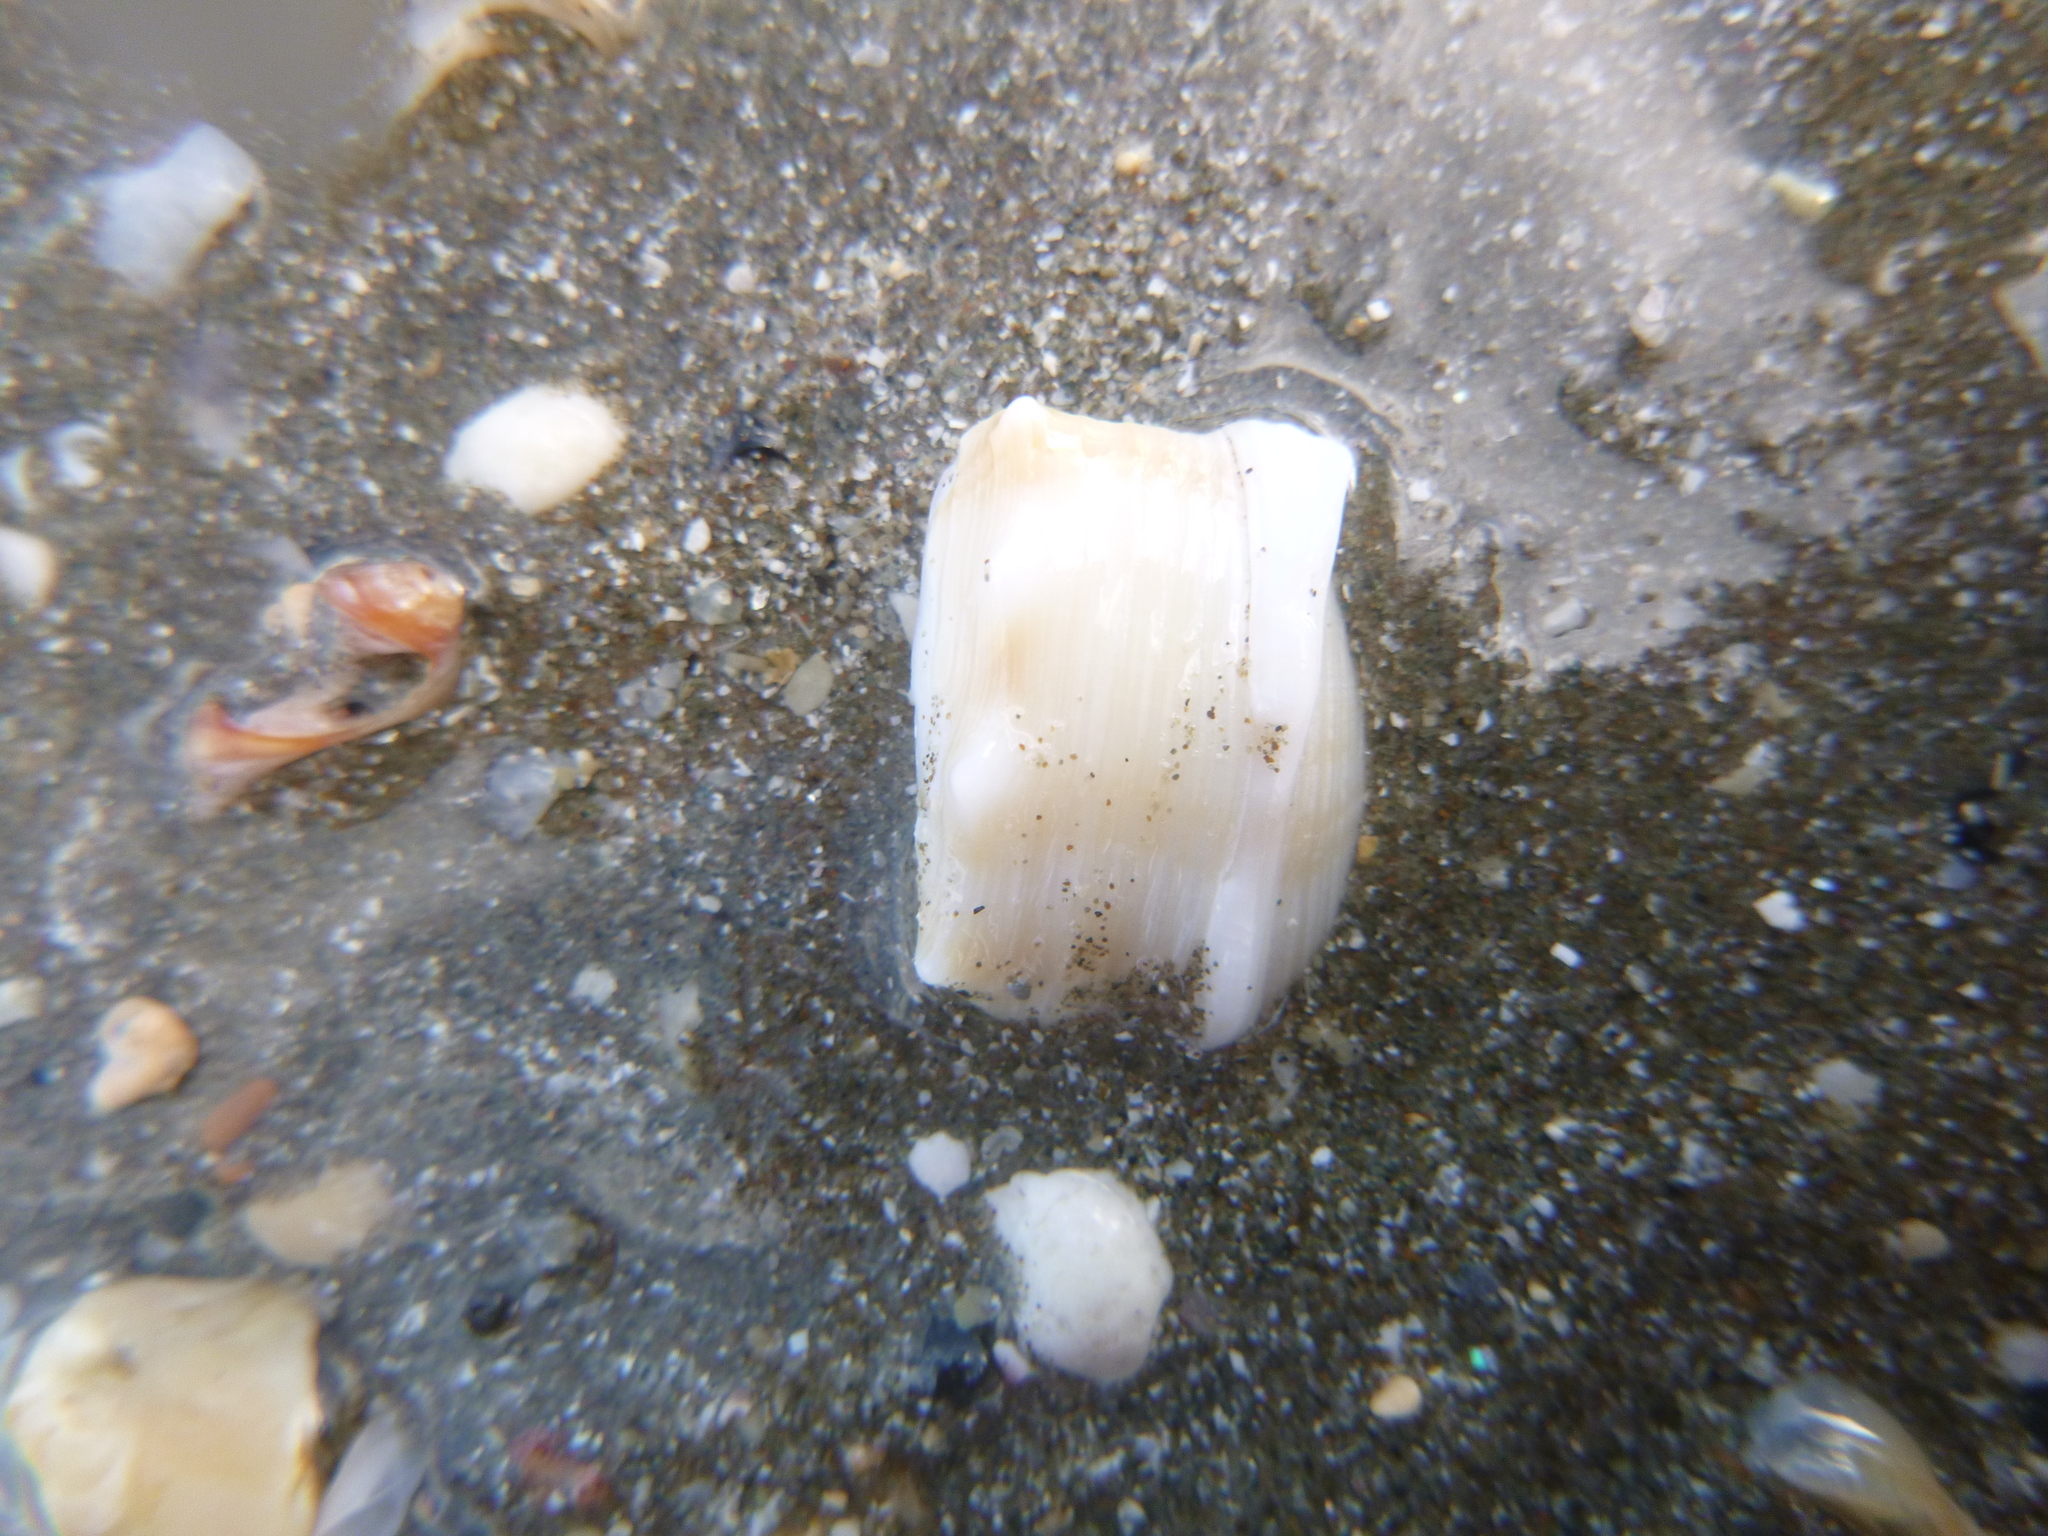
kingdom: Animalia
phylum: Mollusca
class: Gastropoda
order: Littorinimorpha
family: Struthiolariidae
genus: Struthiolaria
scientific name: Struthiolaria papulosa
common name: Large ostrich foot
